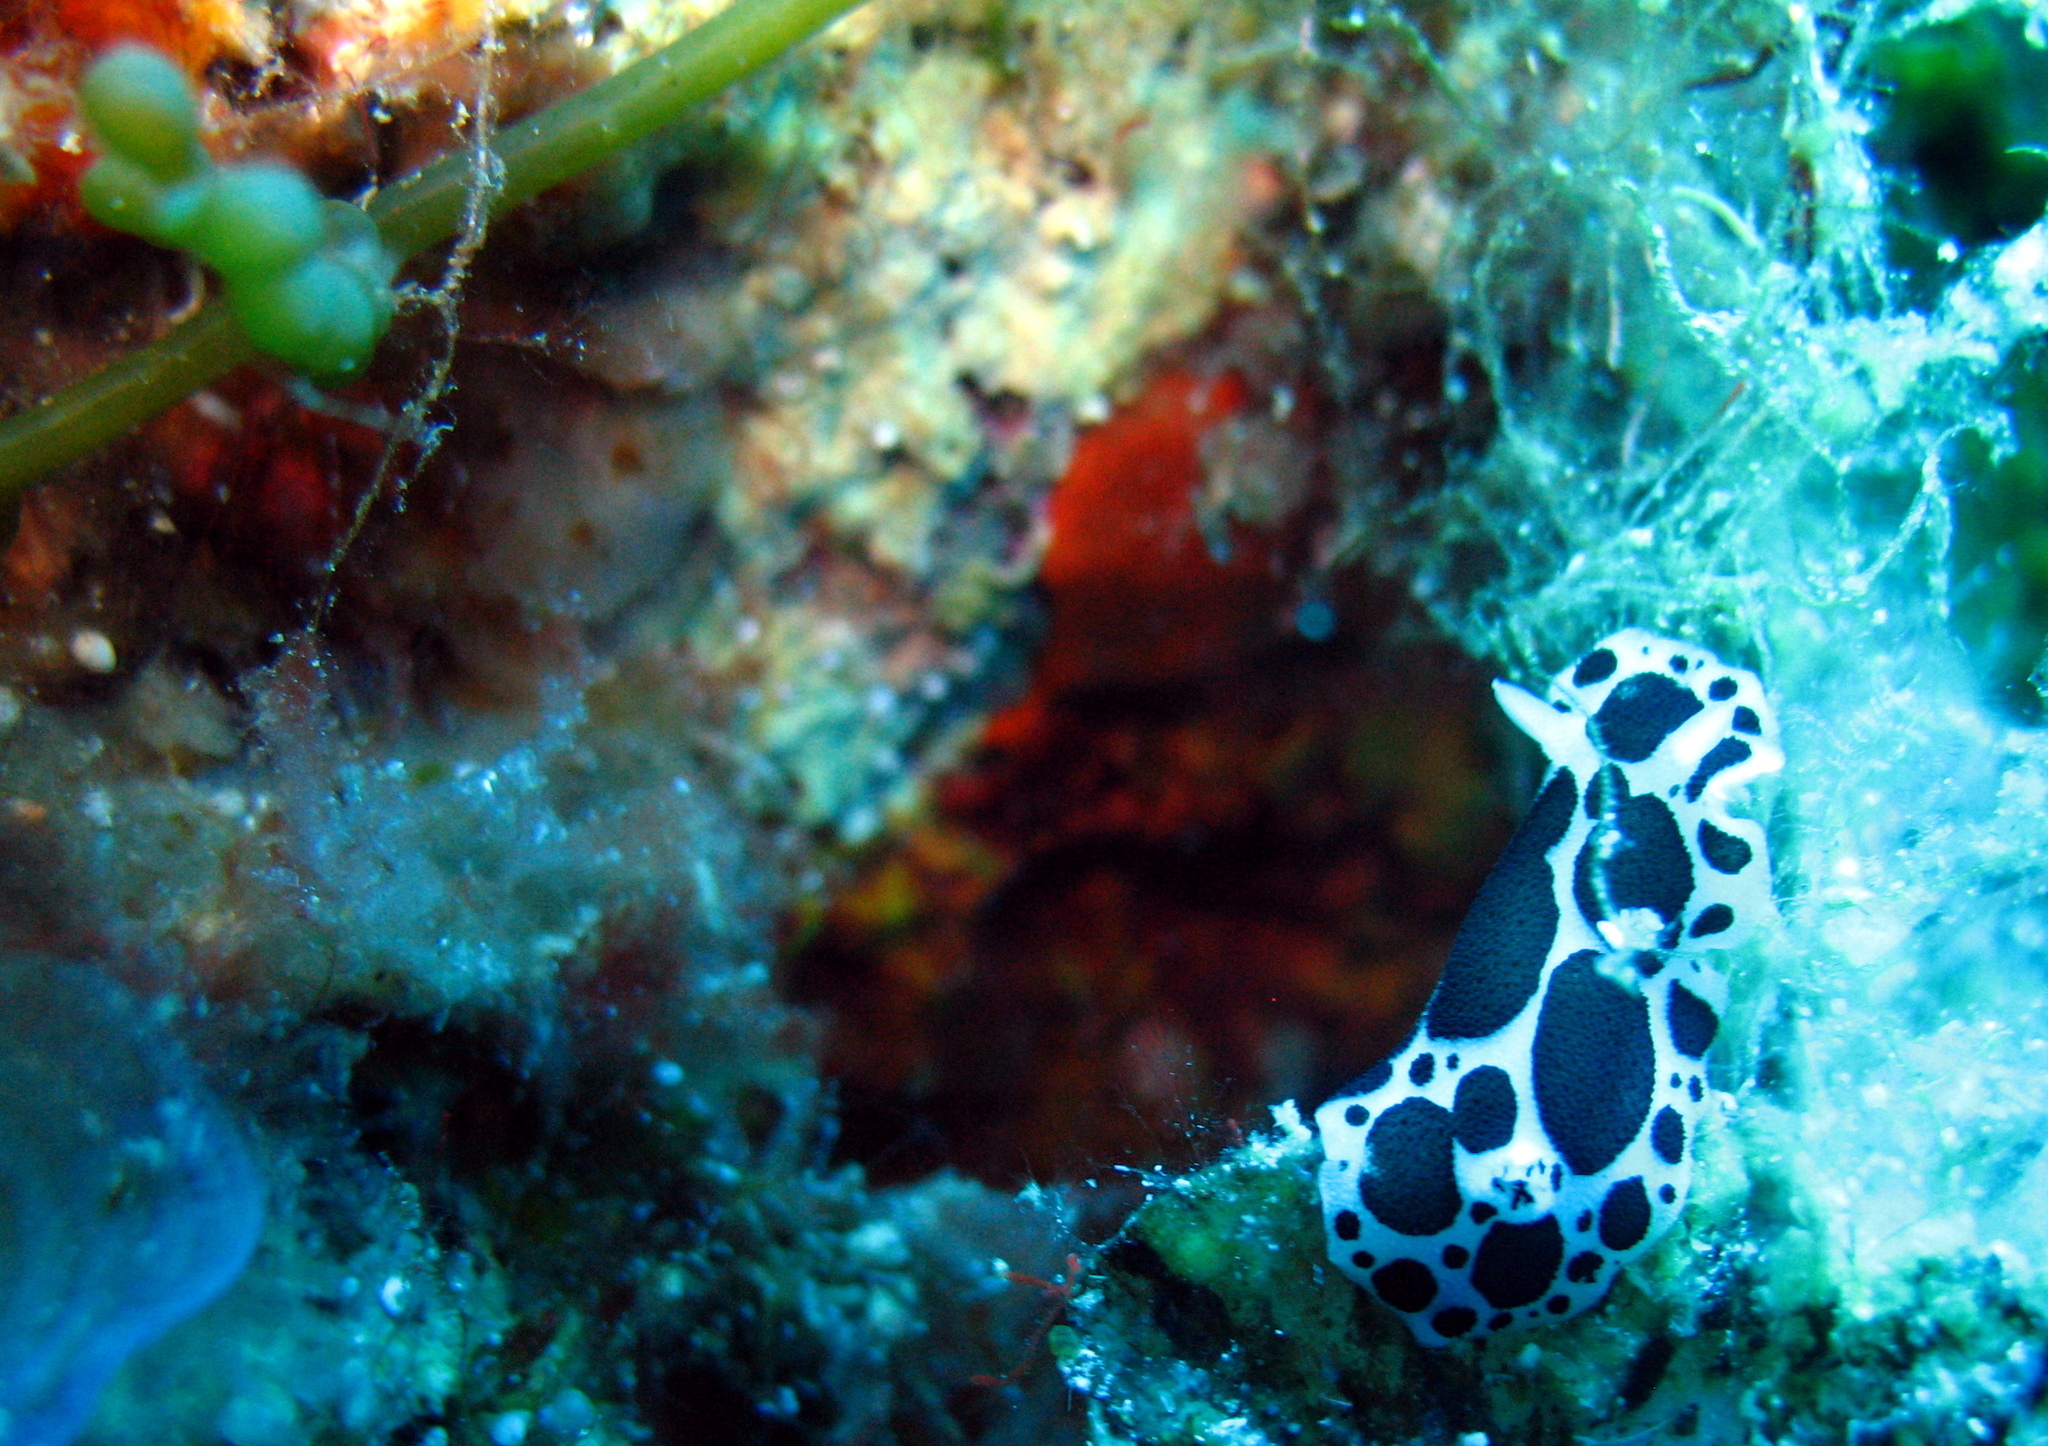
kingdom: Animalia
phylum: Mollusca
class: Gastropoda
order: Nudibranchia
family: Discodorididae
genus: Peltodoris
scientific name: Peltodoris atromaculata
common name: Swiss cow nudibranch
